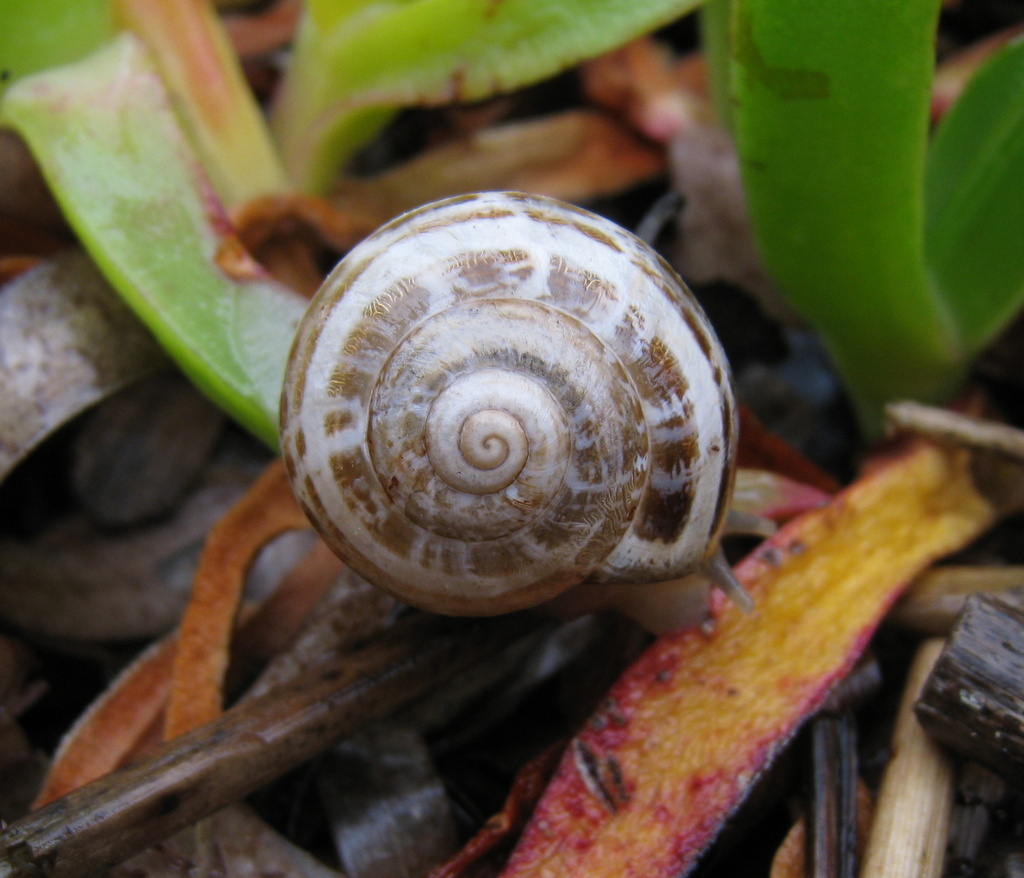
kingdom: Animalia
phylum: Mollusca
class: Gastropoda
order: Stylommatophora
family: Helicidae
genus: Eobania
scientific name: Eobania vermiculata
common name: Chocolateband snail
